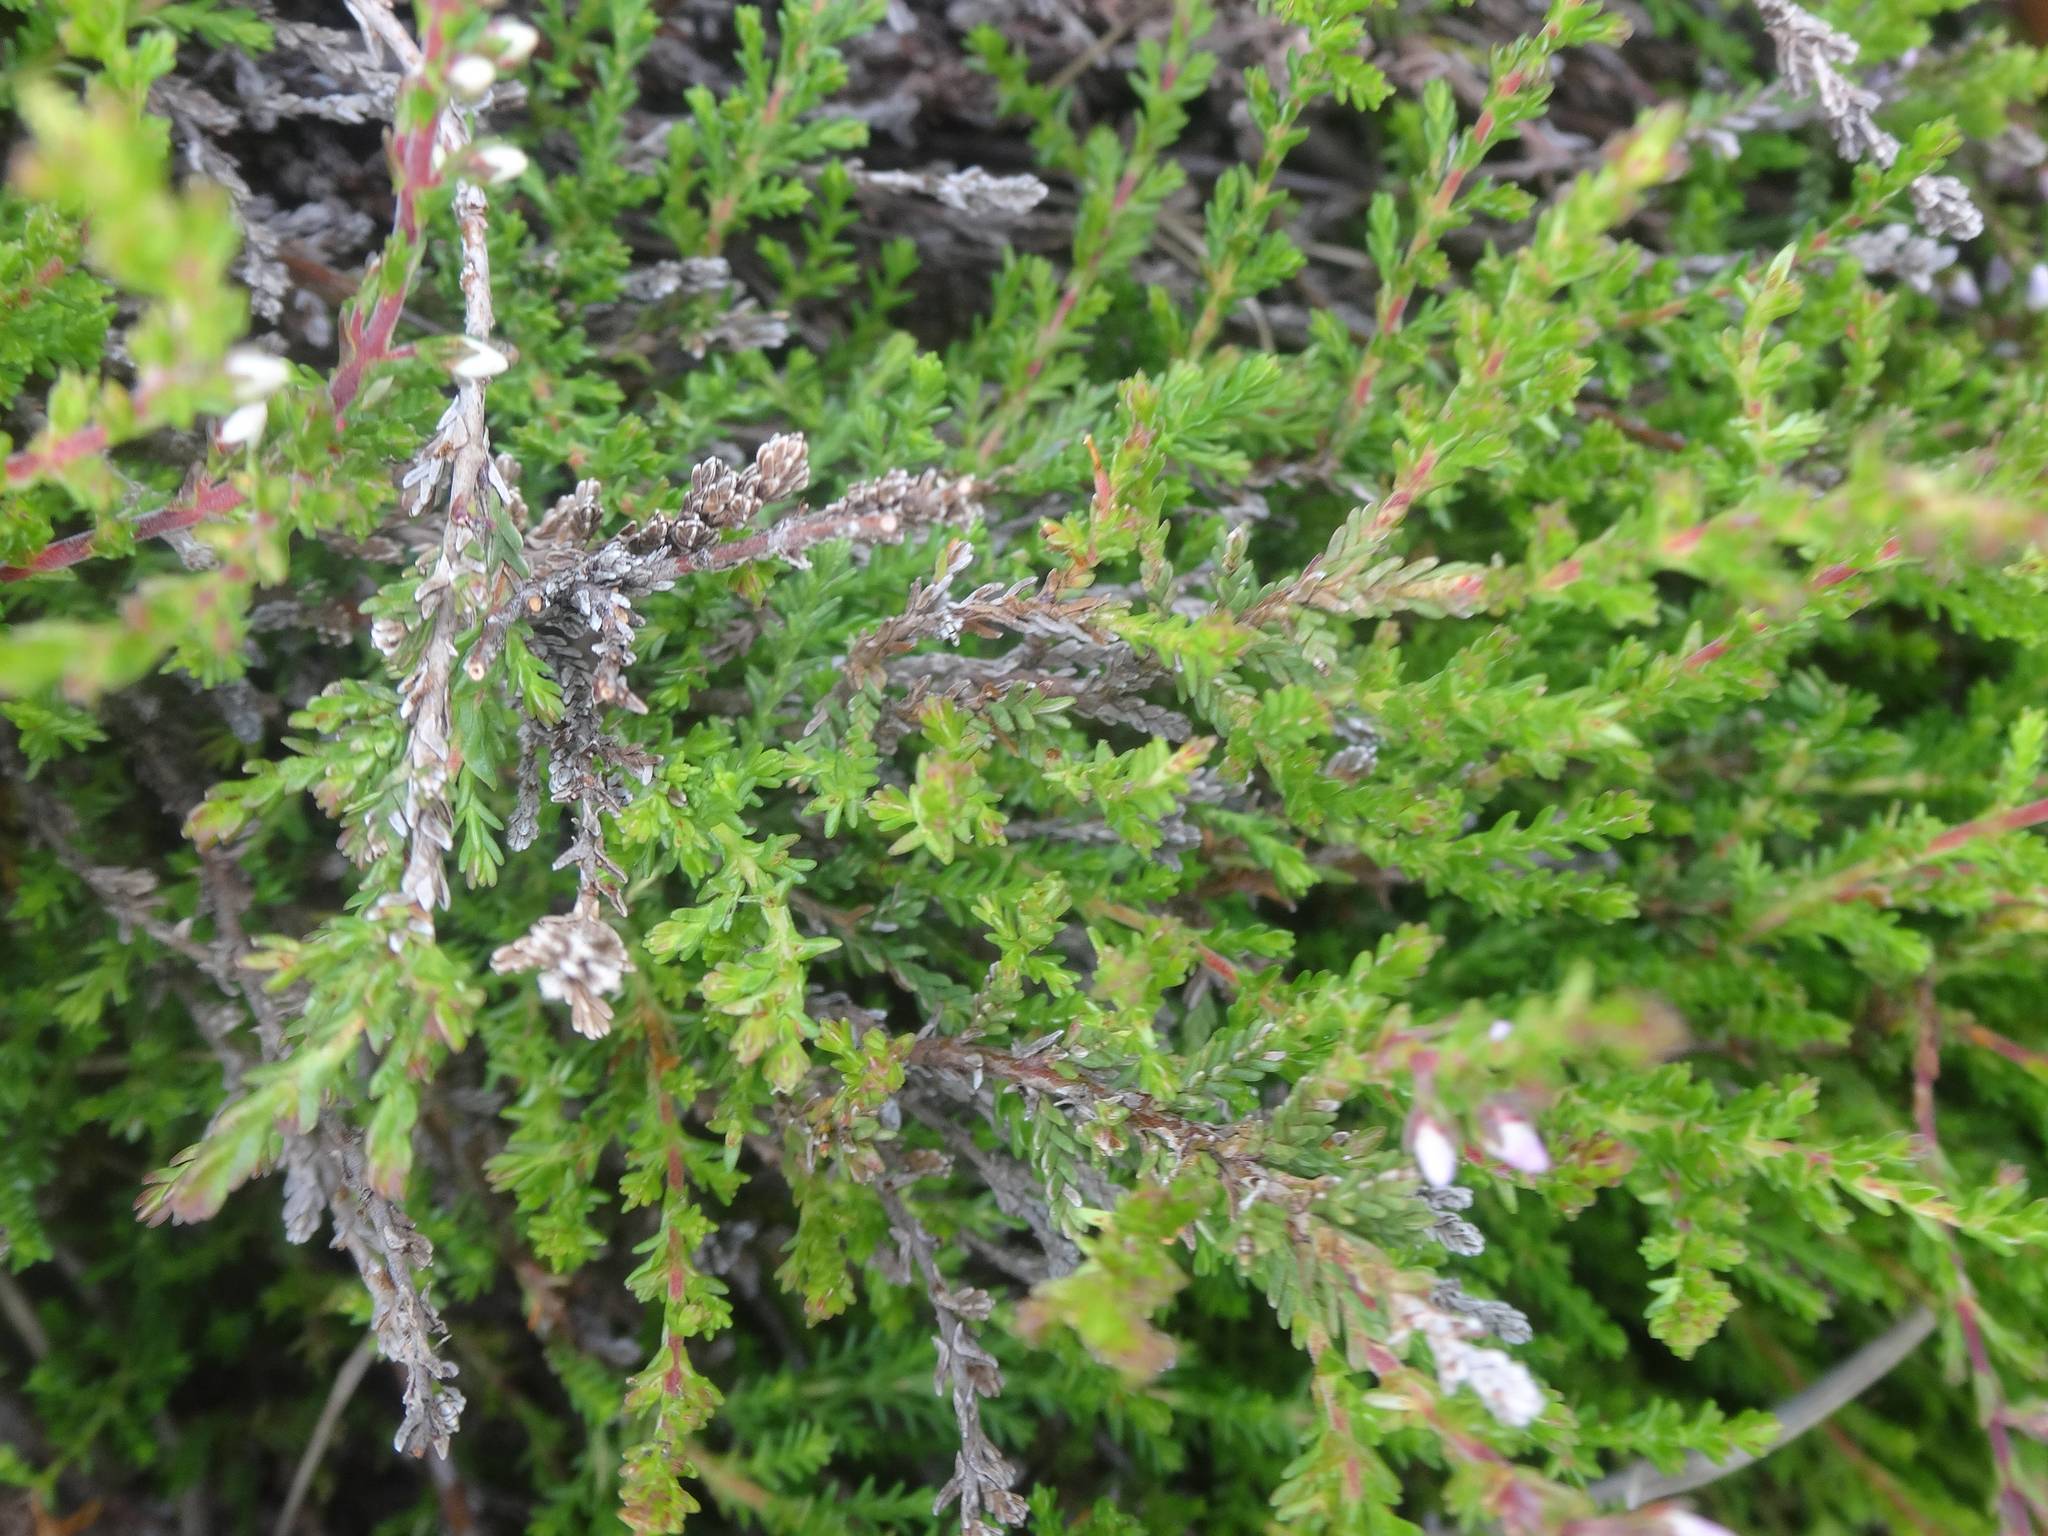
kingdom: Plantae
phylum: Tracheophyta
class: Magnoliopsida
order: Ericales
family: Ericaceae
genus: Calluna
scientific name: Calluna vulgaris
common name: Heather
